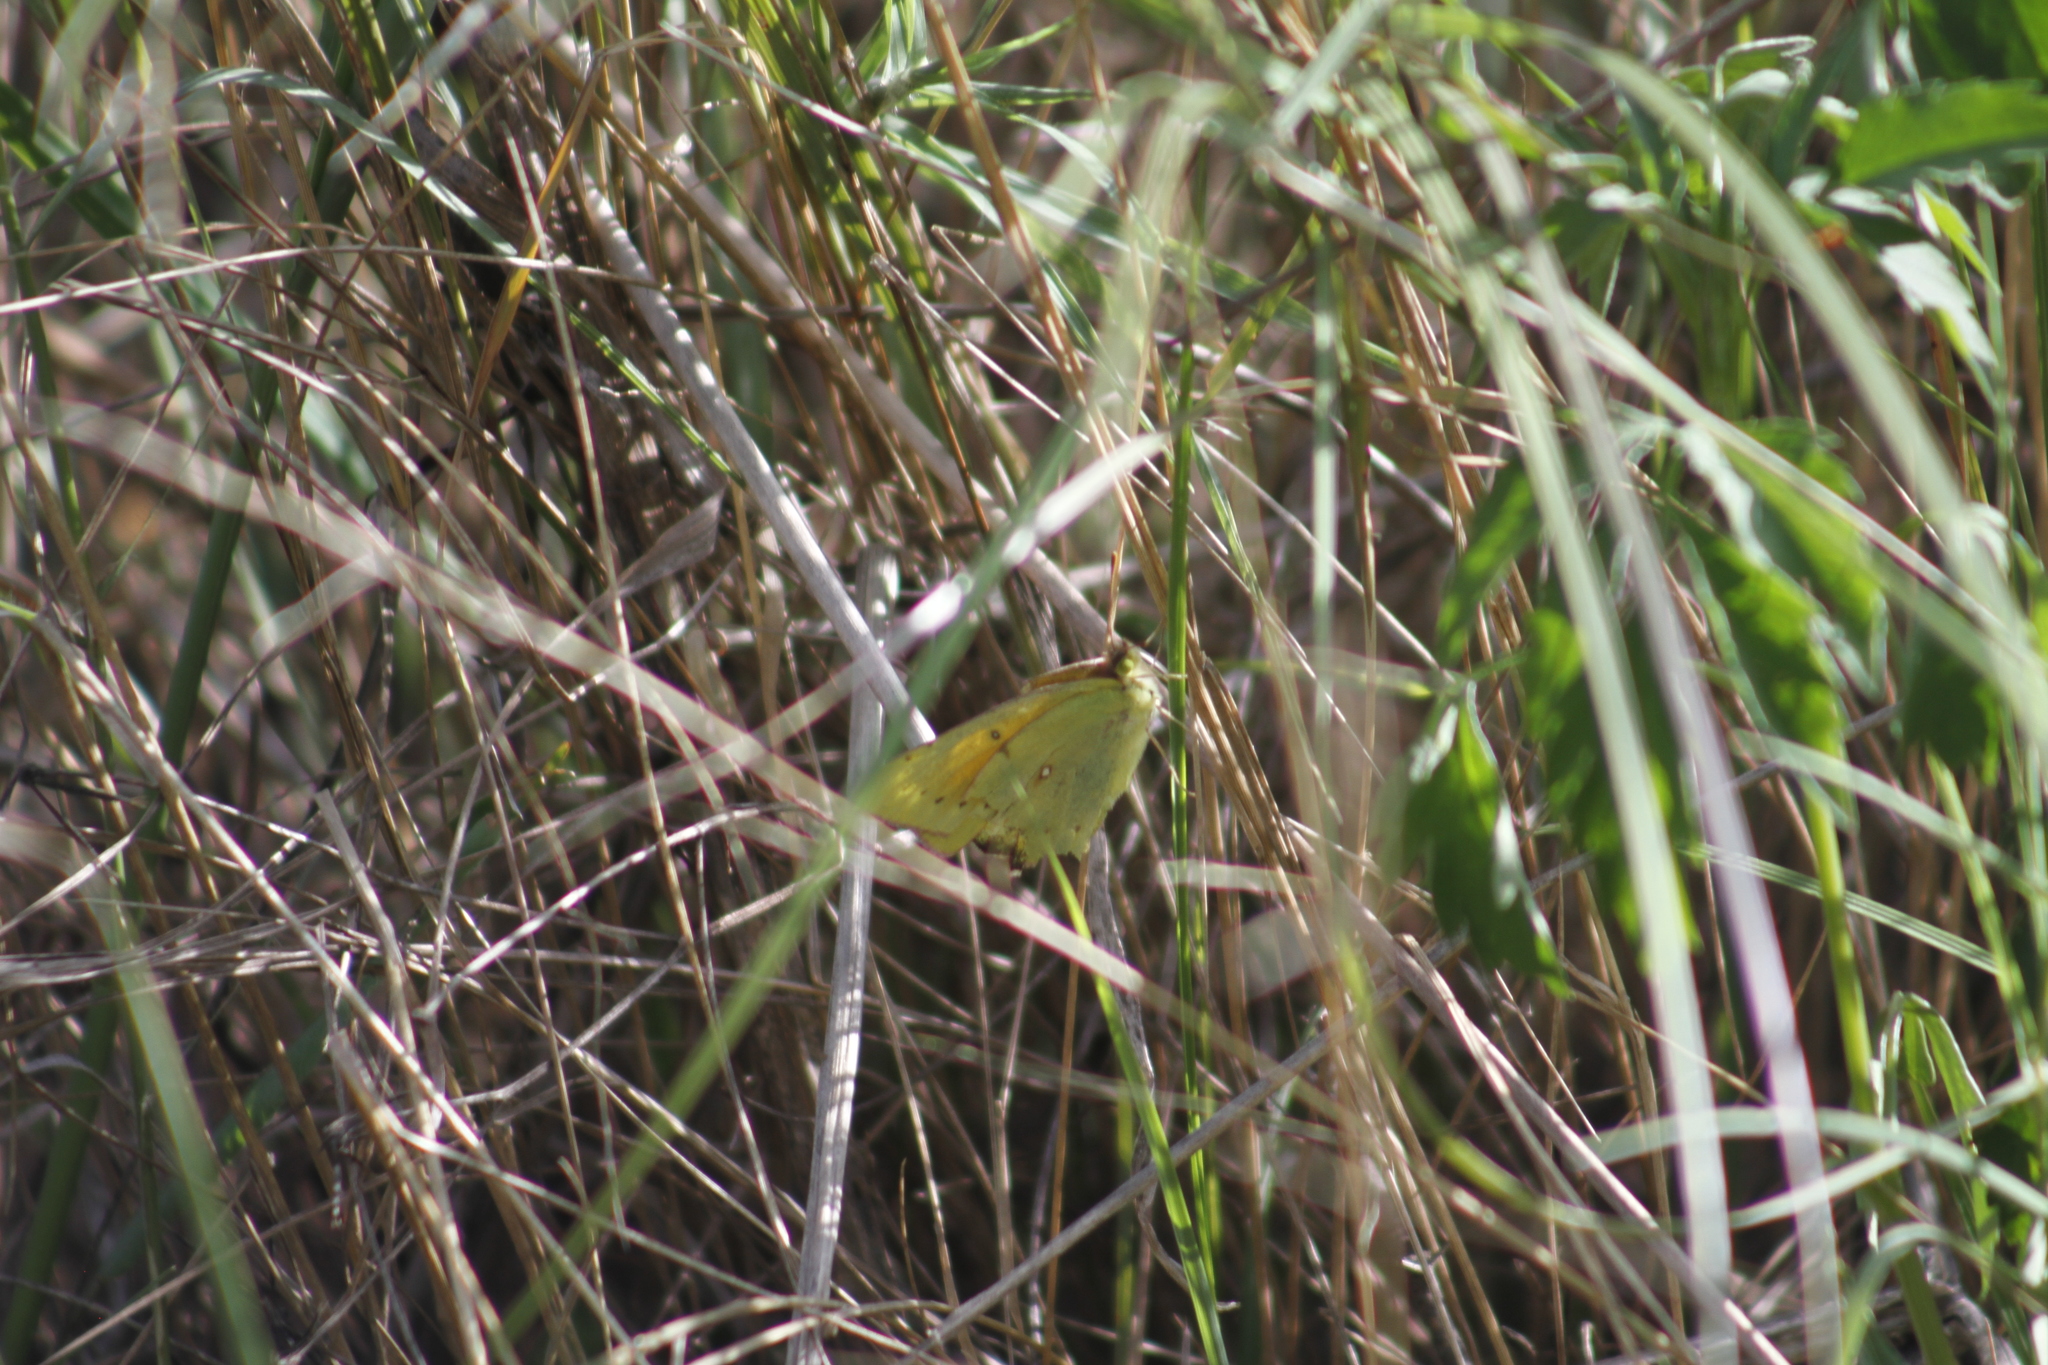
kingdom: Animalia
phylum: Arthropoda
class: Insecta
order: Lepidoptera
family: Pieridae
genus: Colias
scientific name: Colias lesbia
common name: Lesbia clouded yellow
